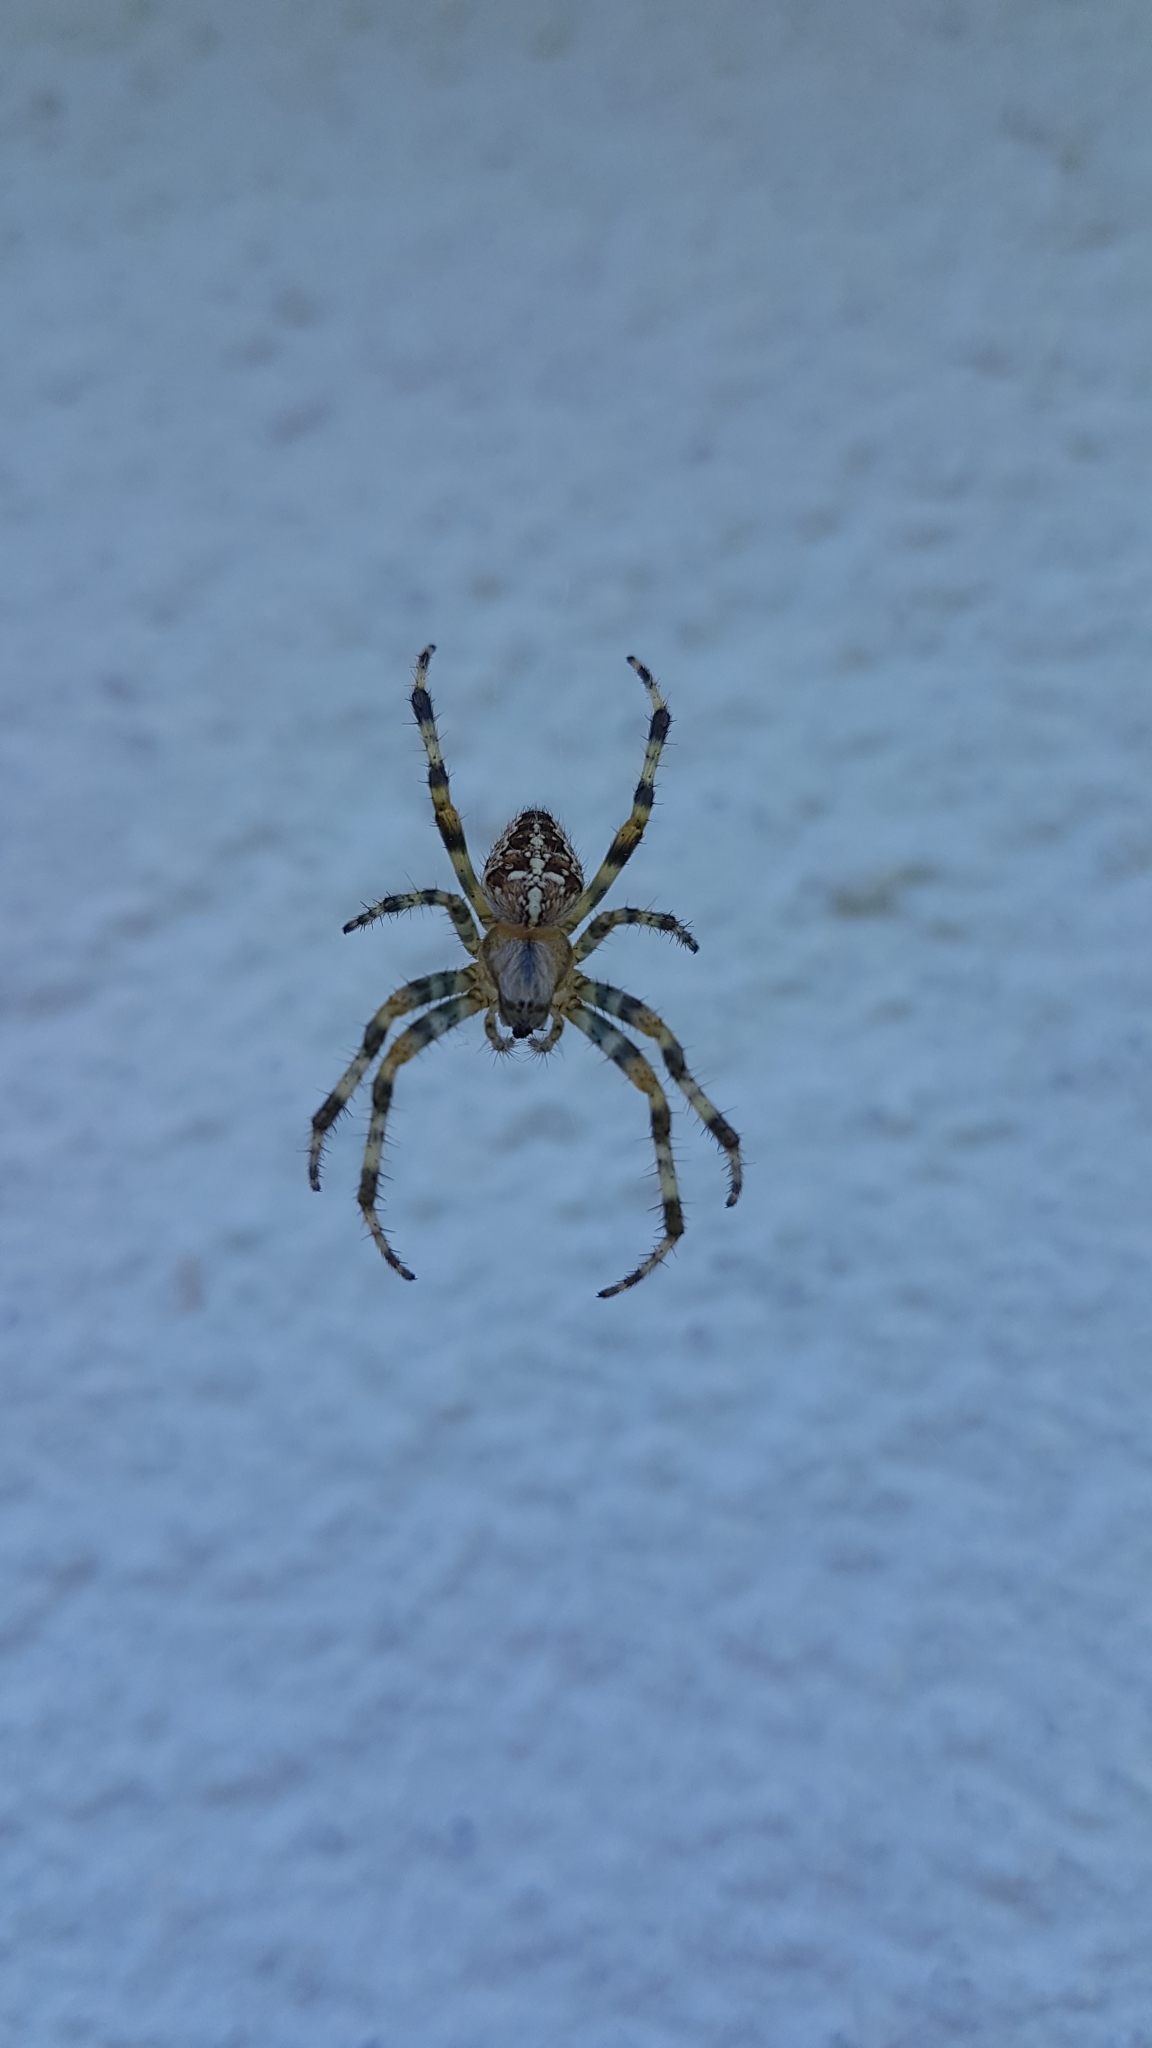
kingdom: Animalia
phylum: Arthropoda
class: Arachnida
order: Araneae
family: Araneidae
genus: Araneus
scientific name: Araneus diadematus
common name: Cross orbweaver
